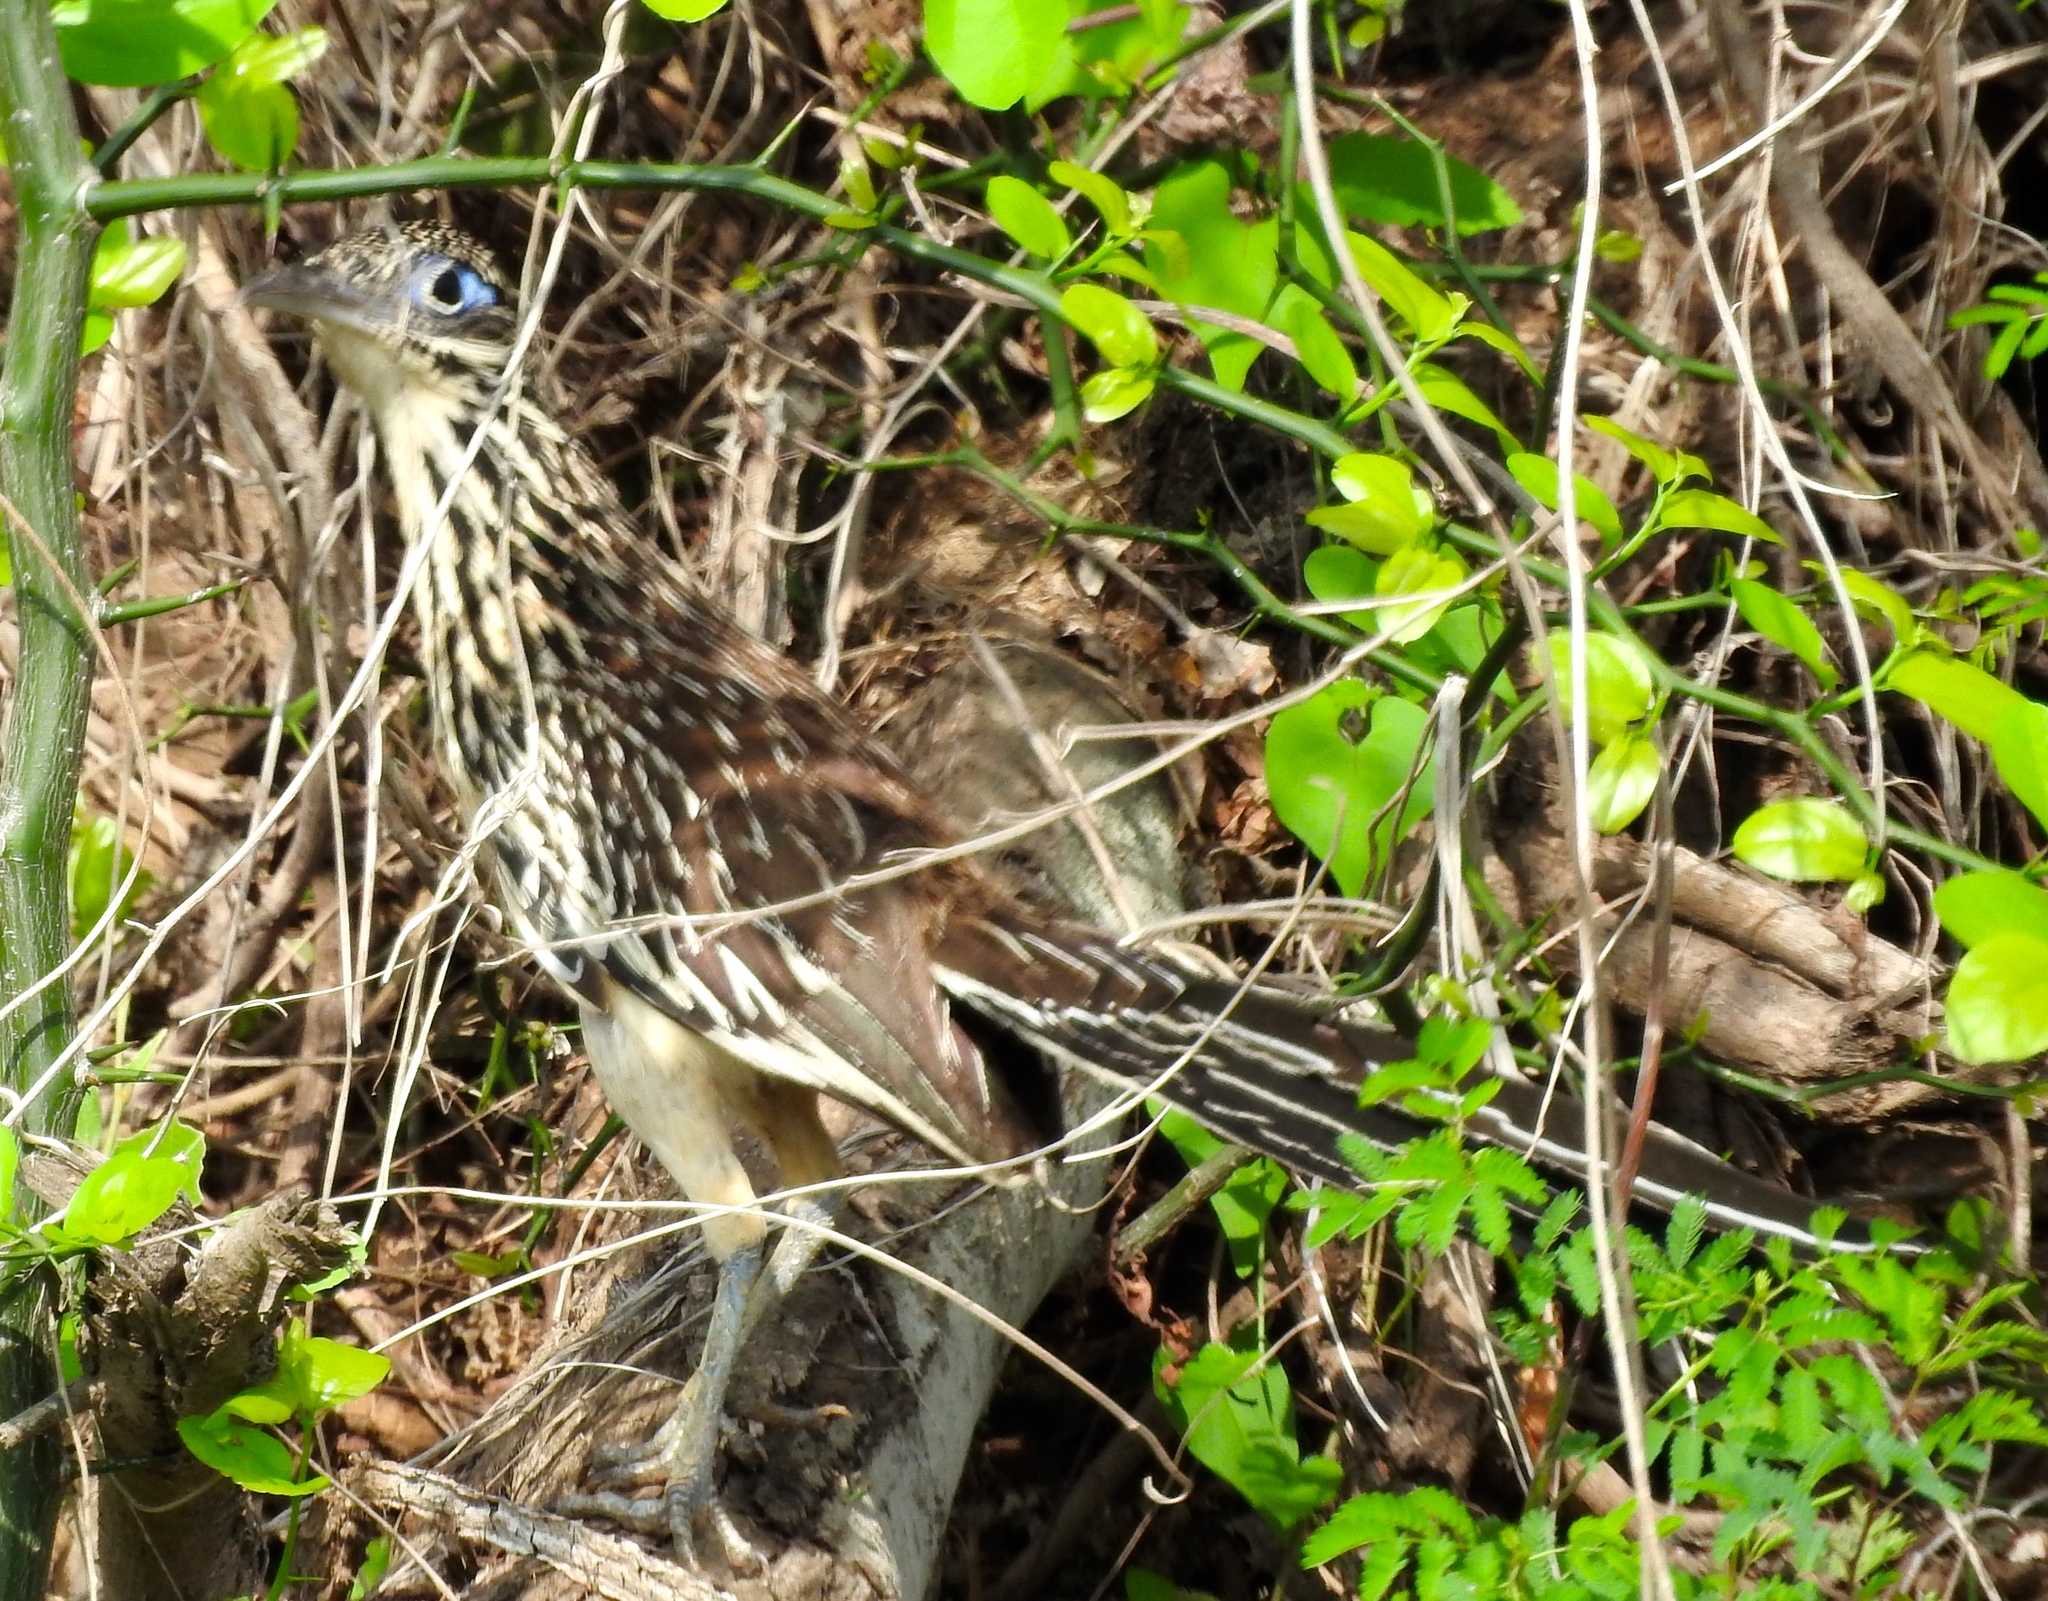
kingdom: Animalia
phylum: Chordata
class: Aves
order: Cuculiformes
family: Cuculidae
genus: Geococcyx
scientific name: Geococcyx velox
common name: Lesser roadrunner
